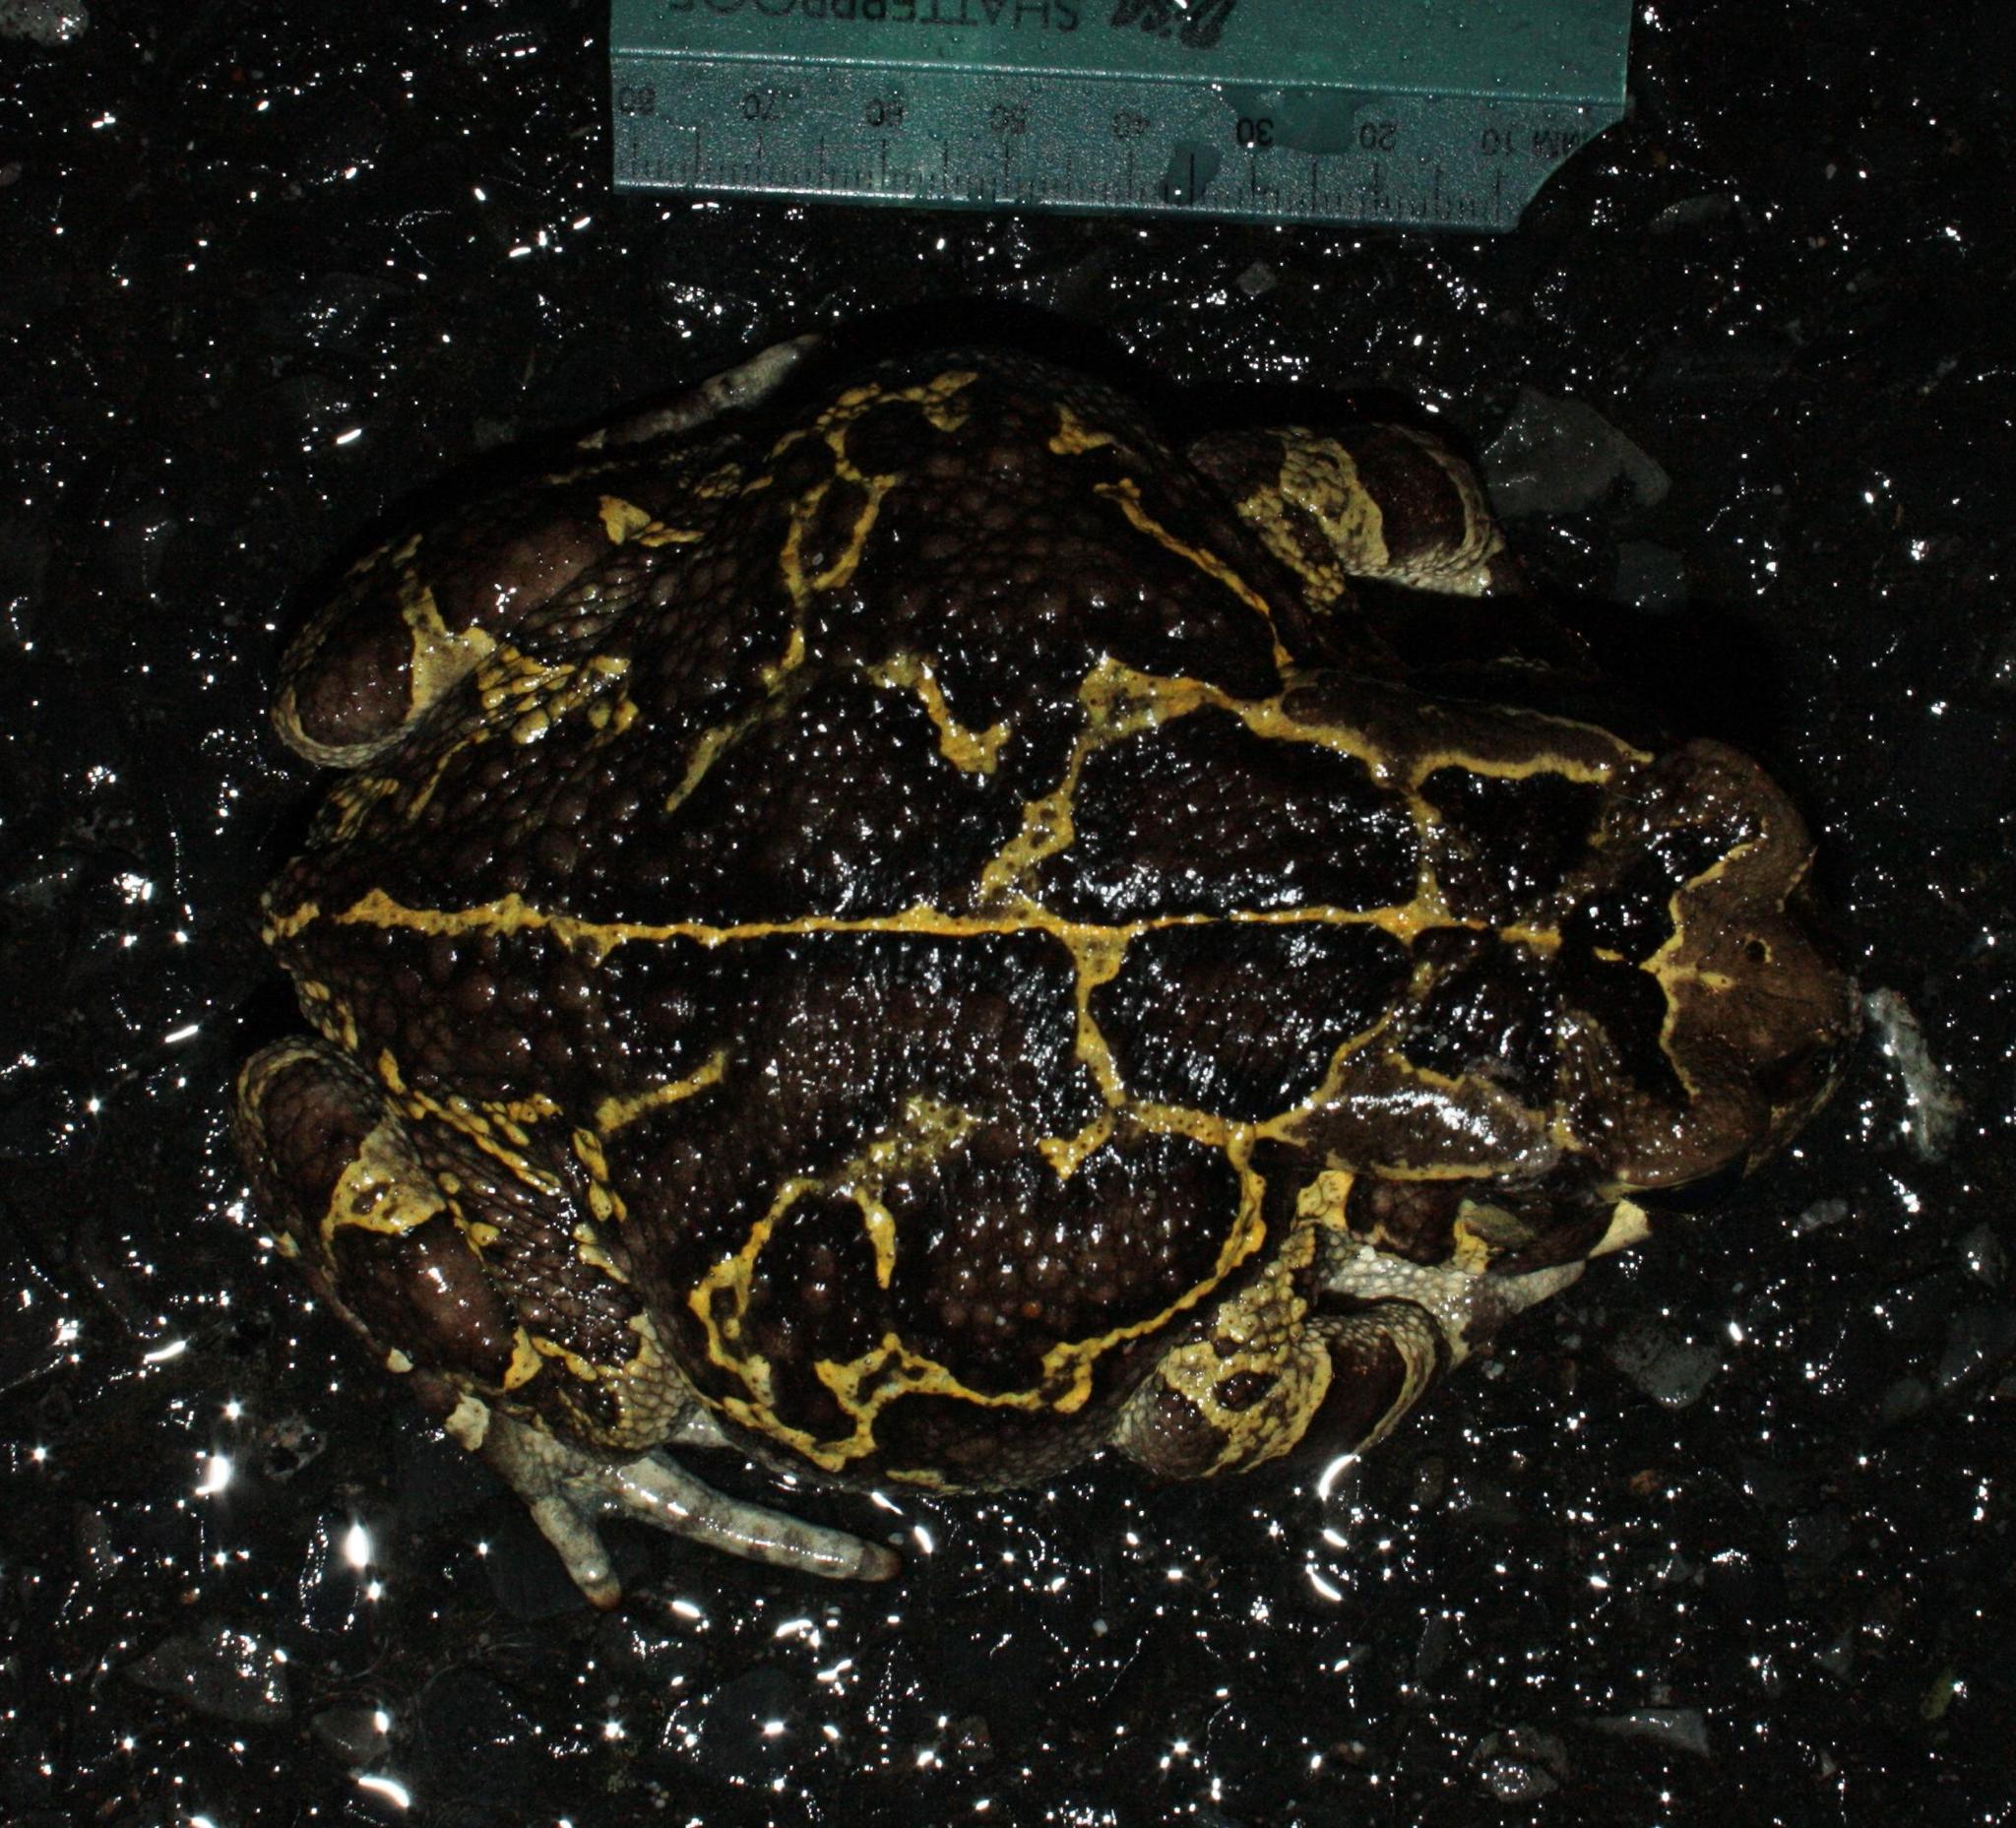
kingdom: Animalia
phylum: Chordata
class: Amphibia
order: Anura
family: Bufonidae
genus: Sclerophrys
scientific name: Sclerophrys pantherina
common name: Panther toad
